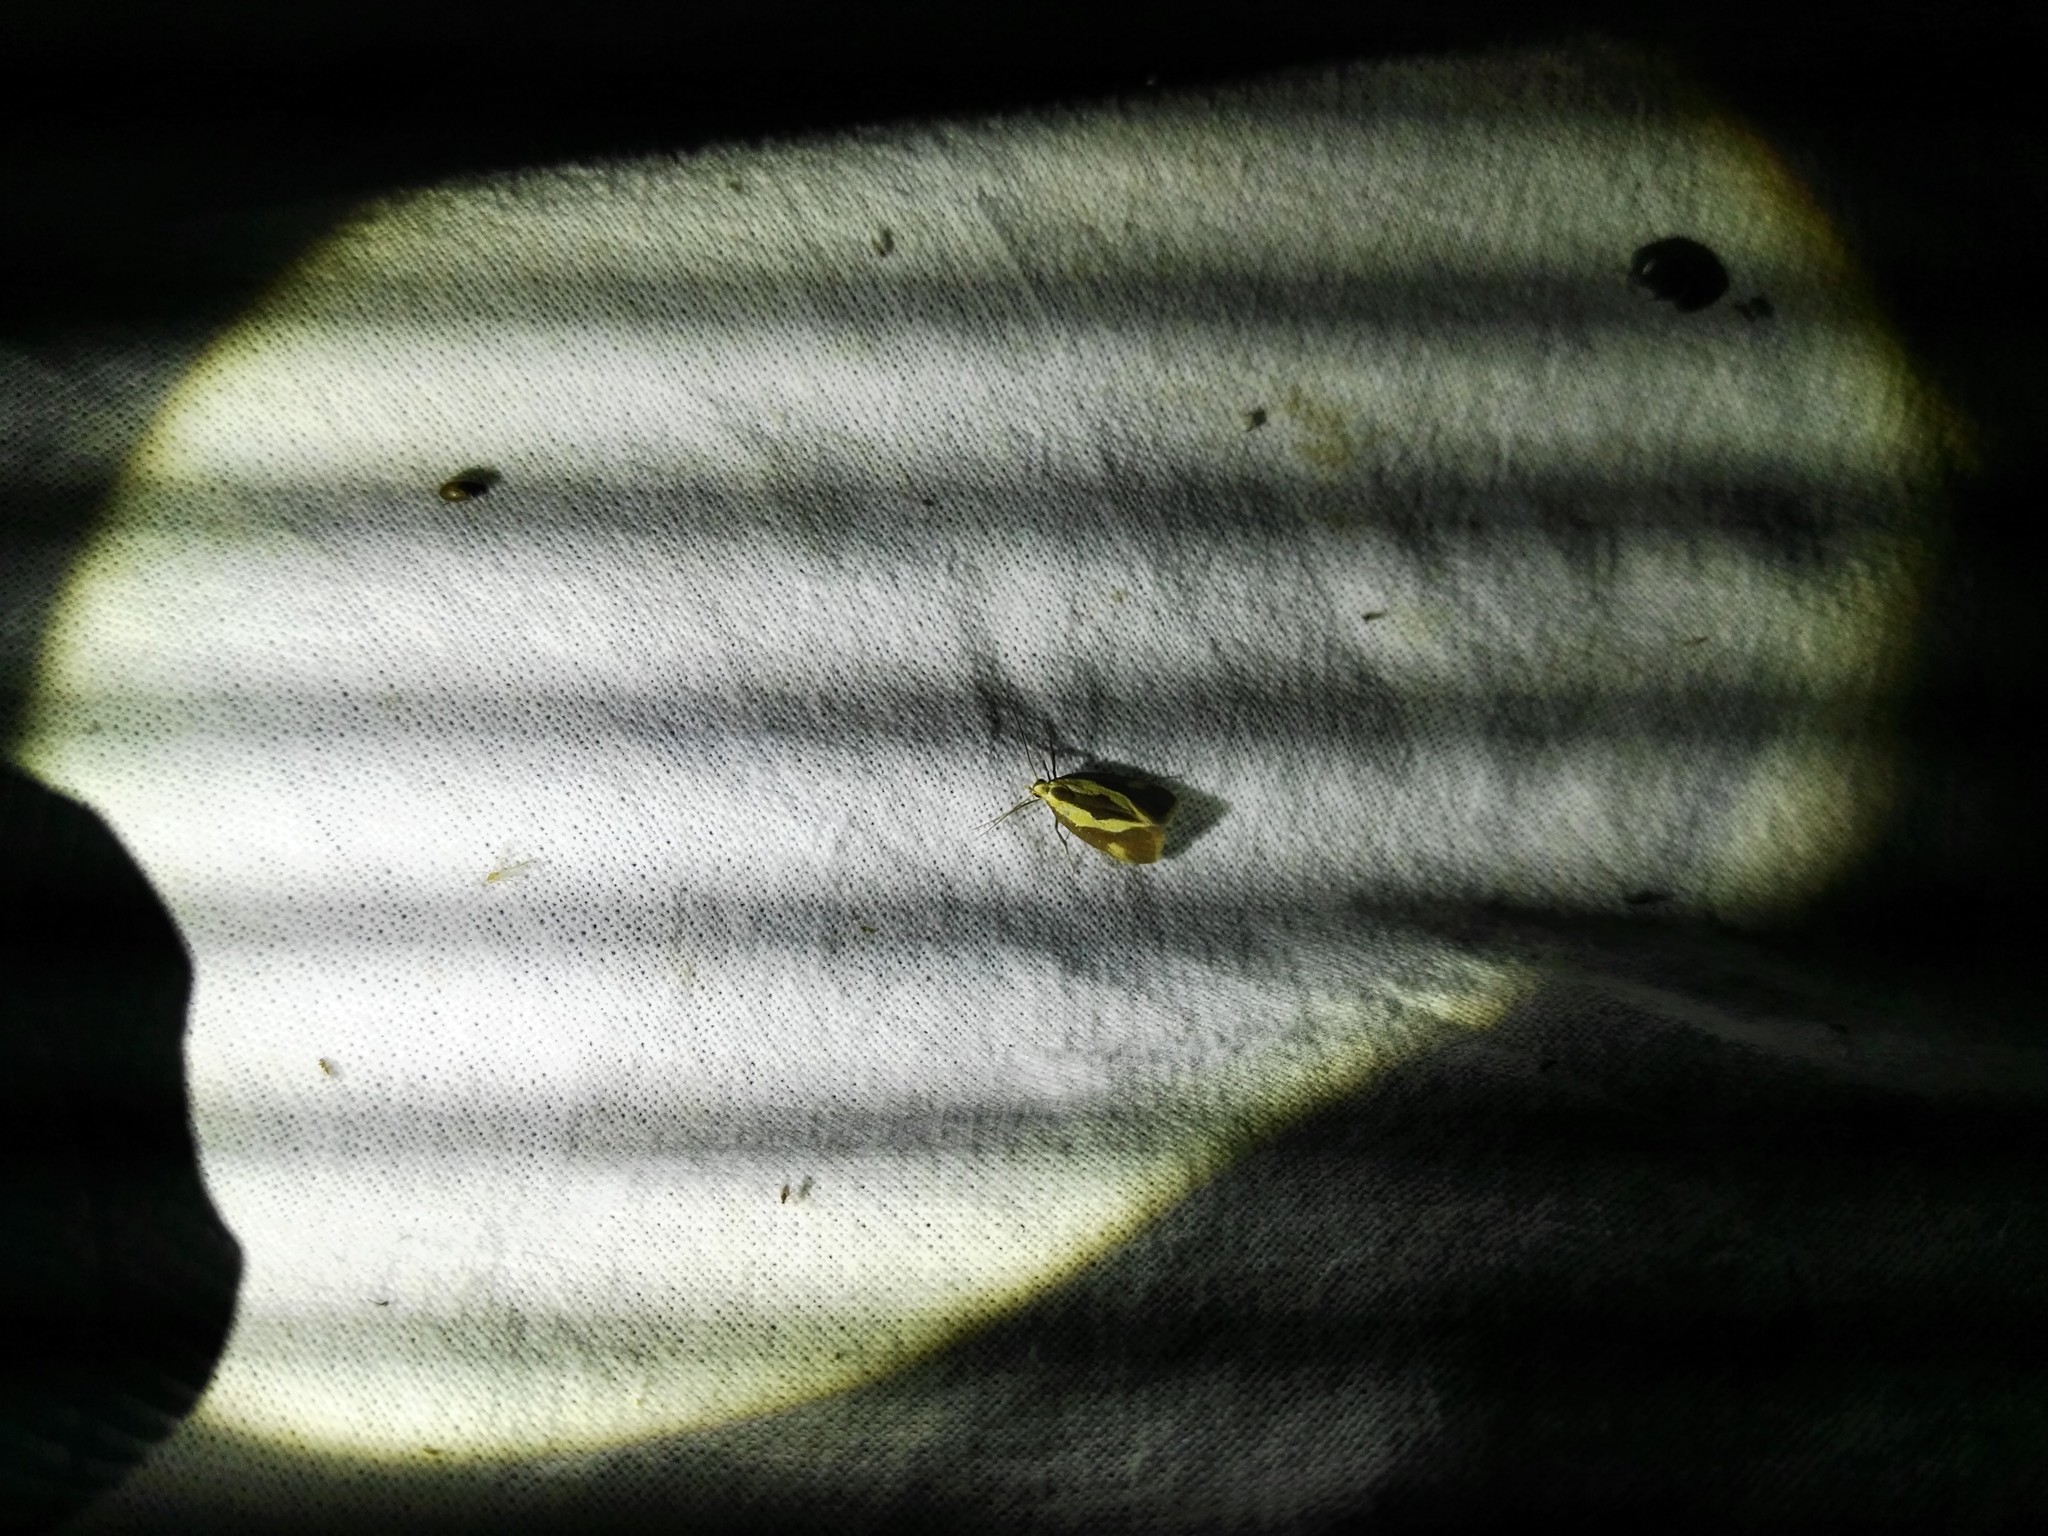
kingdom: Animalia
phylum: Arthropoda
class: Insecta
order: Lepidoptera
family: Oecophoridae
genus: Harpella
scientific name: Harpella forficella
